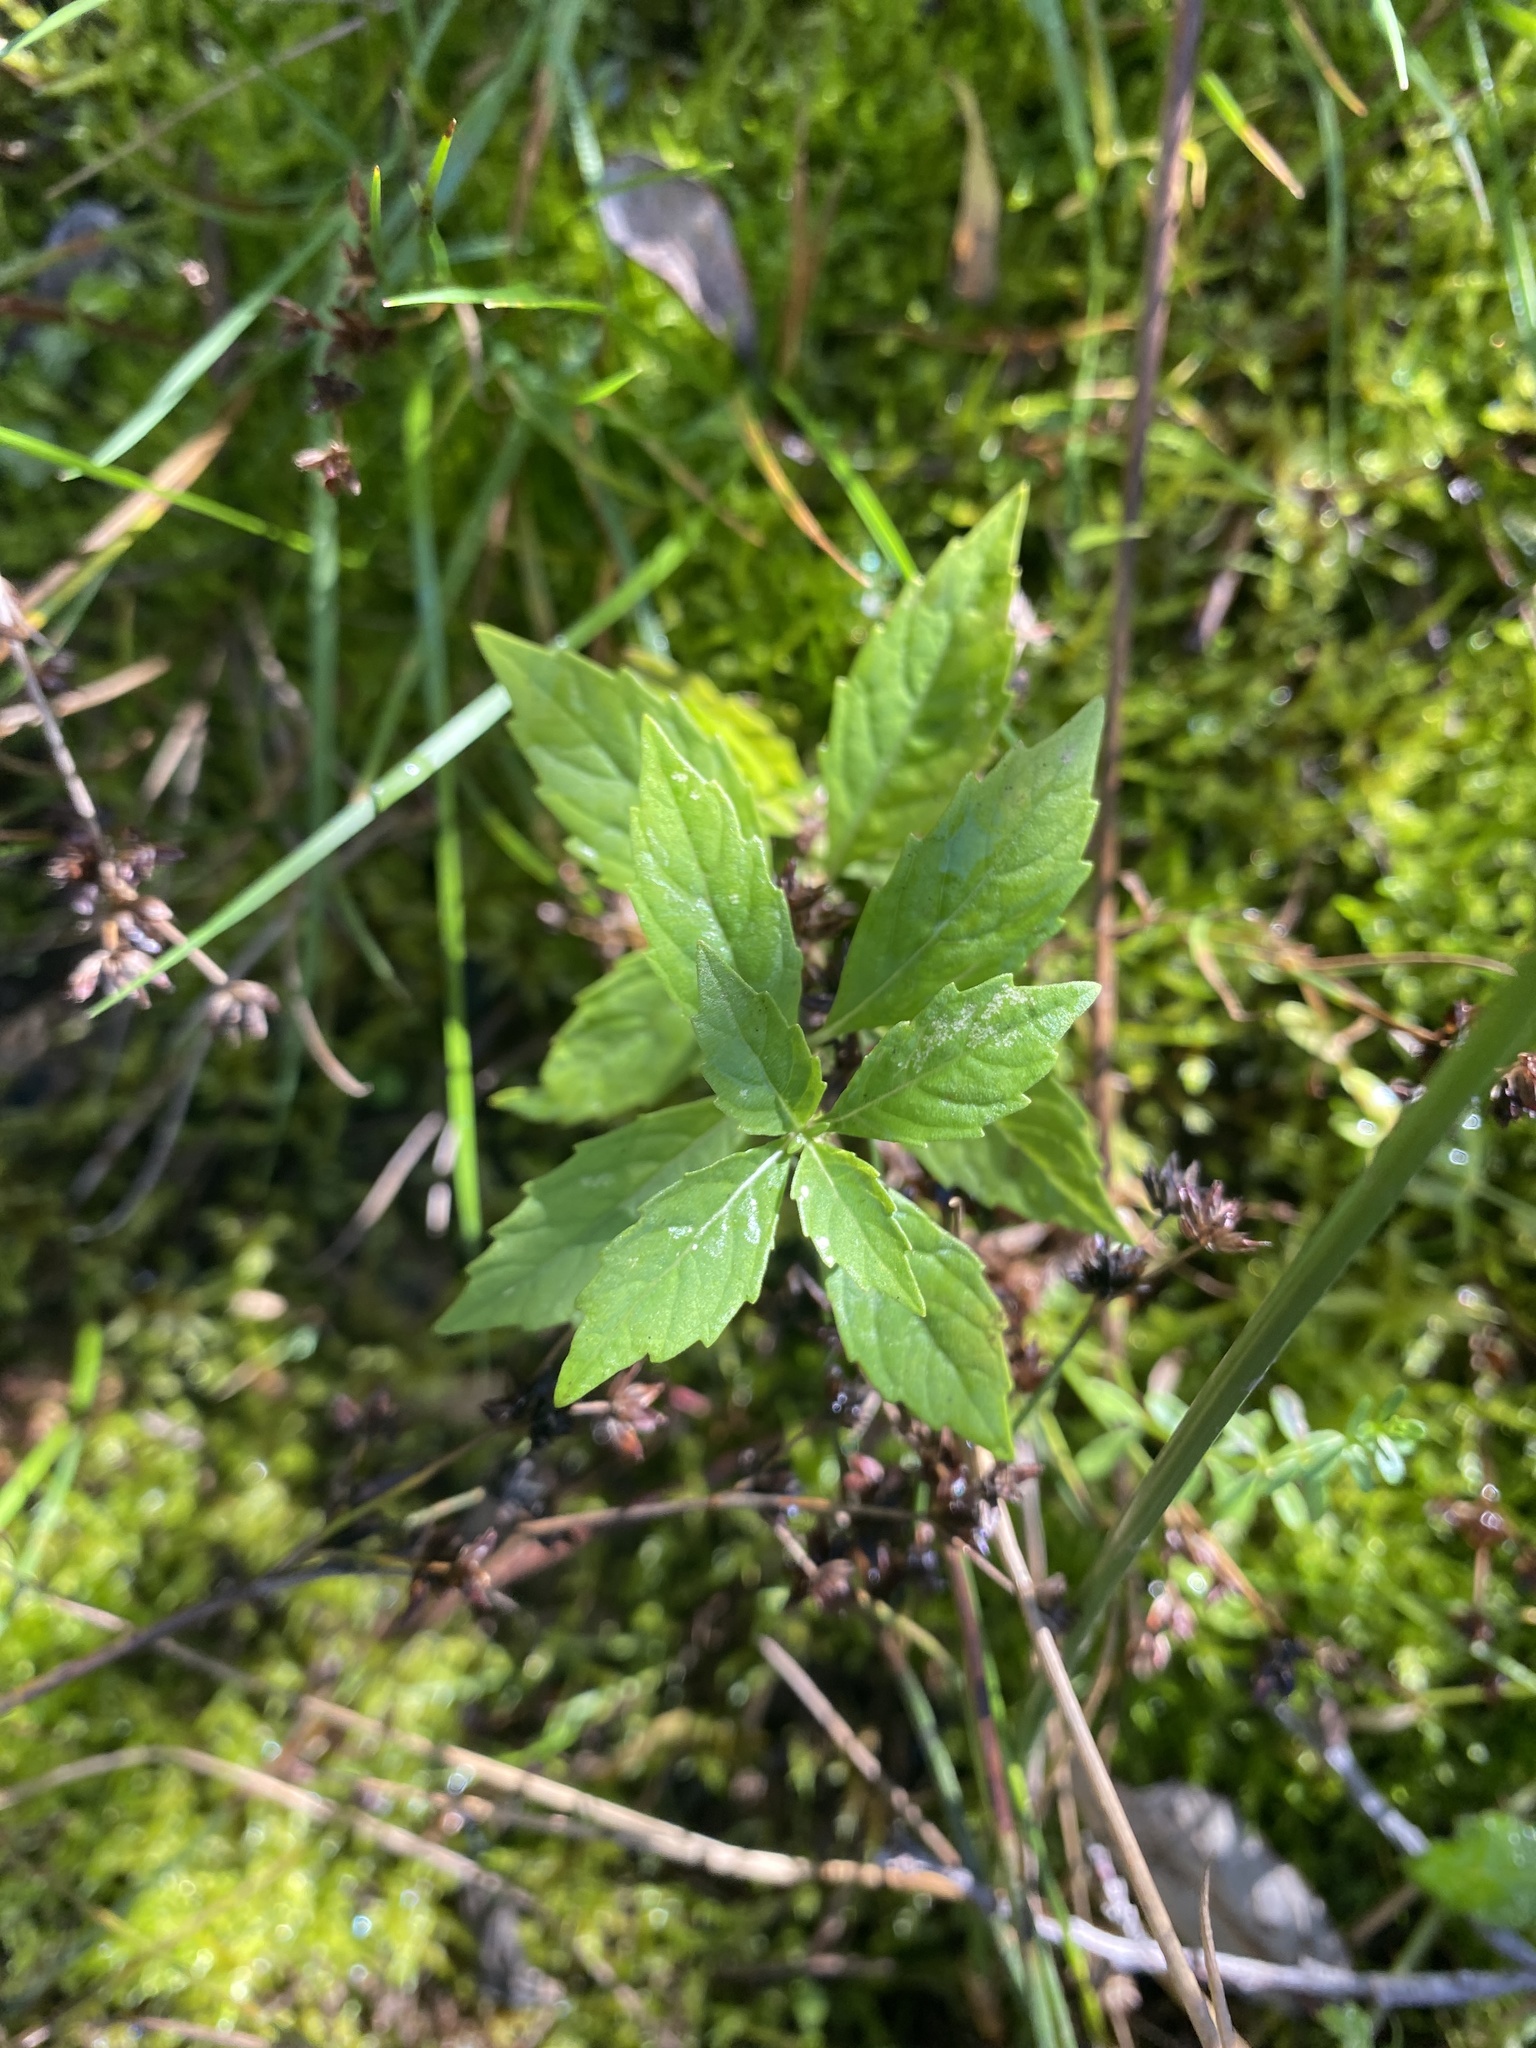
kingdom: Plantae
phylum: Tracheophyta
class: Magnoliopsida
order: Lamiales
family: Lamiaceae
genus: Lycopus
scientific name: Lycopus uniflorus
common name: Northern bugleweed
